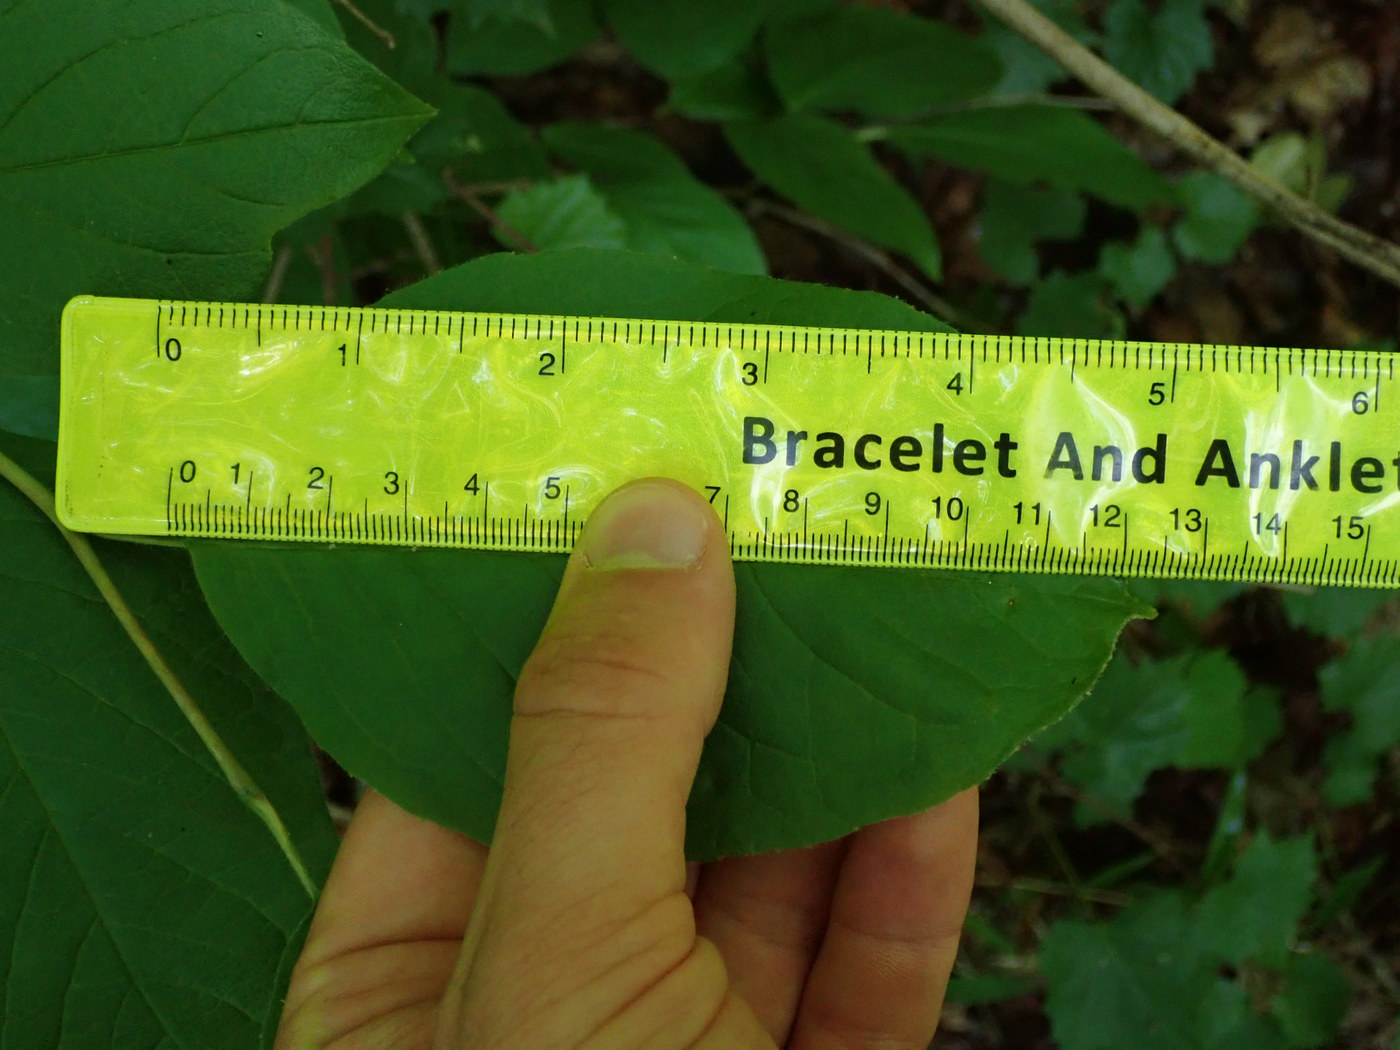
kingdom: Plantae
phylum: Tracheophyta
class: Magnoliopsida
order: Ericales
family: Theaceae
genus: Stewartia
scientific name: Stewartia ovata
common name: Mountain camellia
